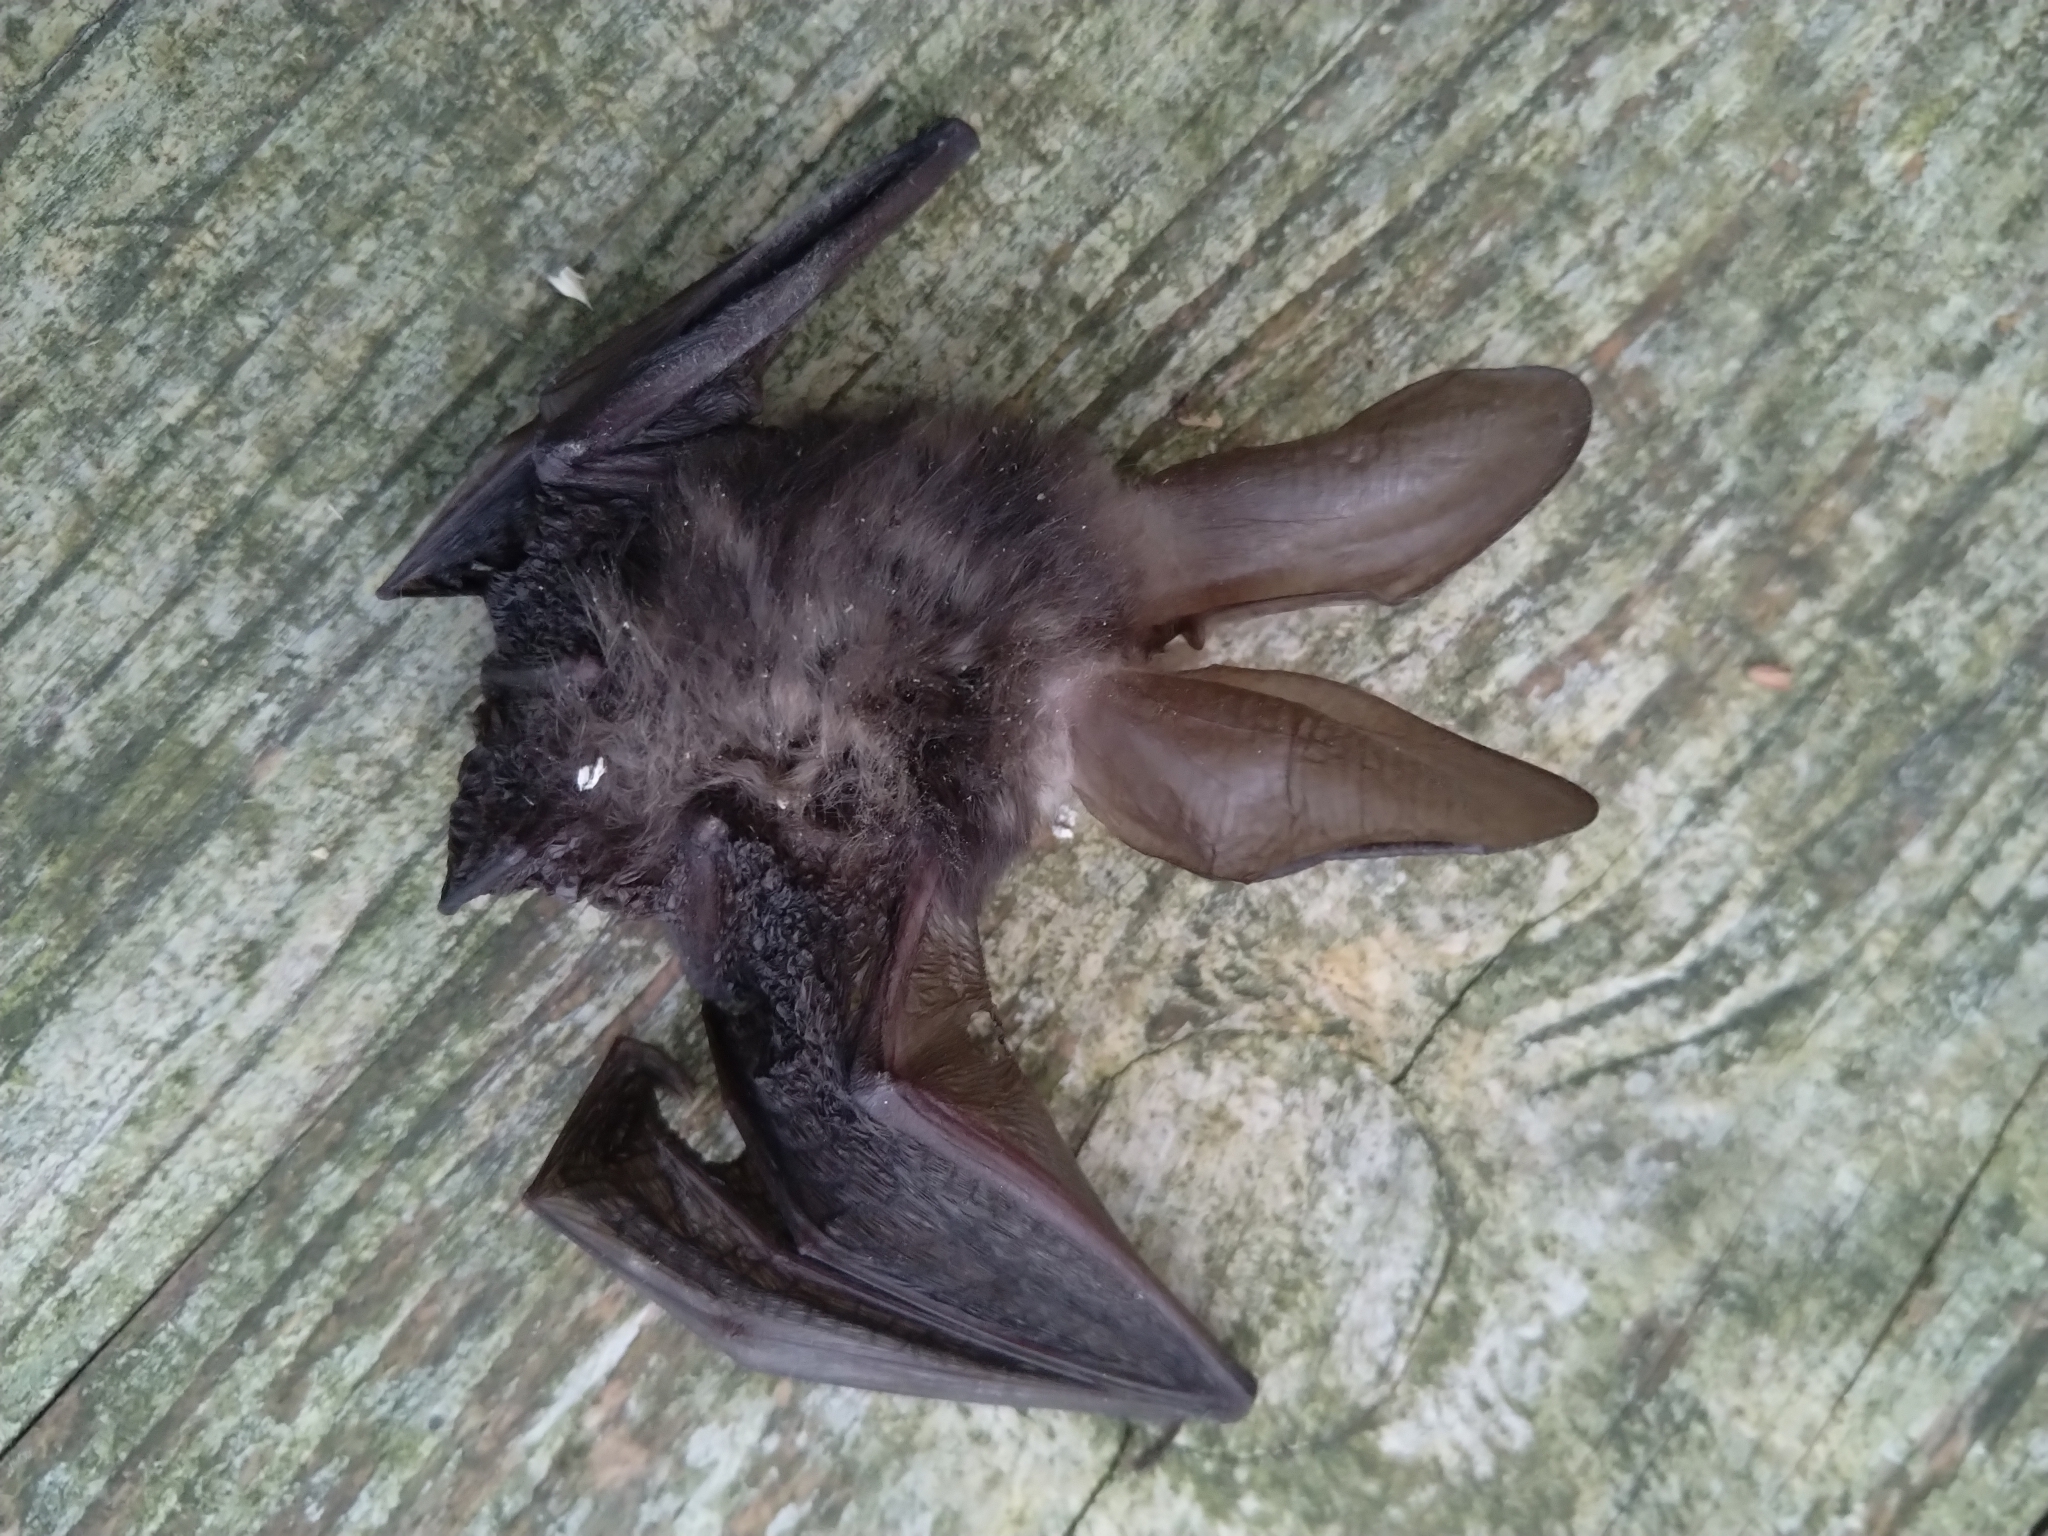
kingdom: Animalia
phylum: Chordata
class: Mammalia
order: Chiroptera
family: Vespertilionidae
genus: Plecotus
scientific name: Plecotus austriacus
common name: Grey long-eared bat
